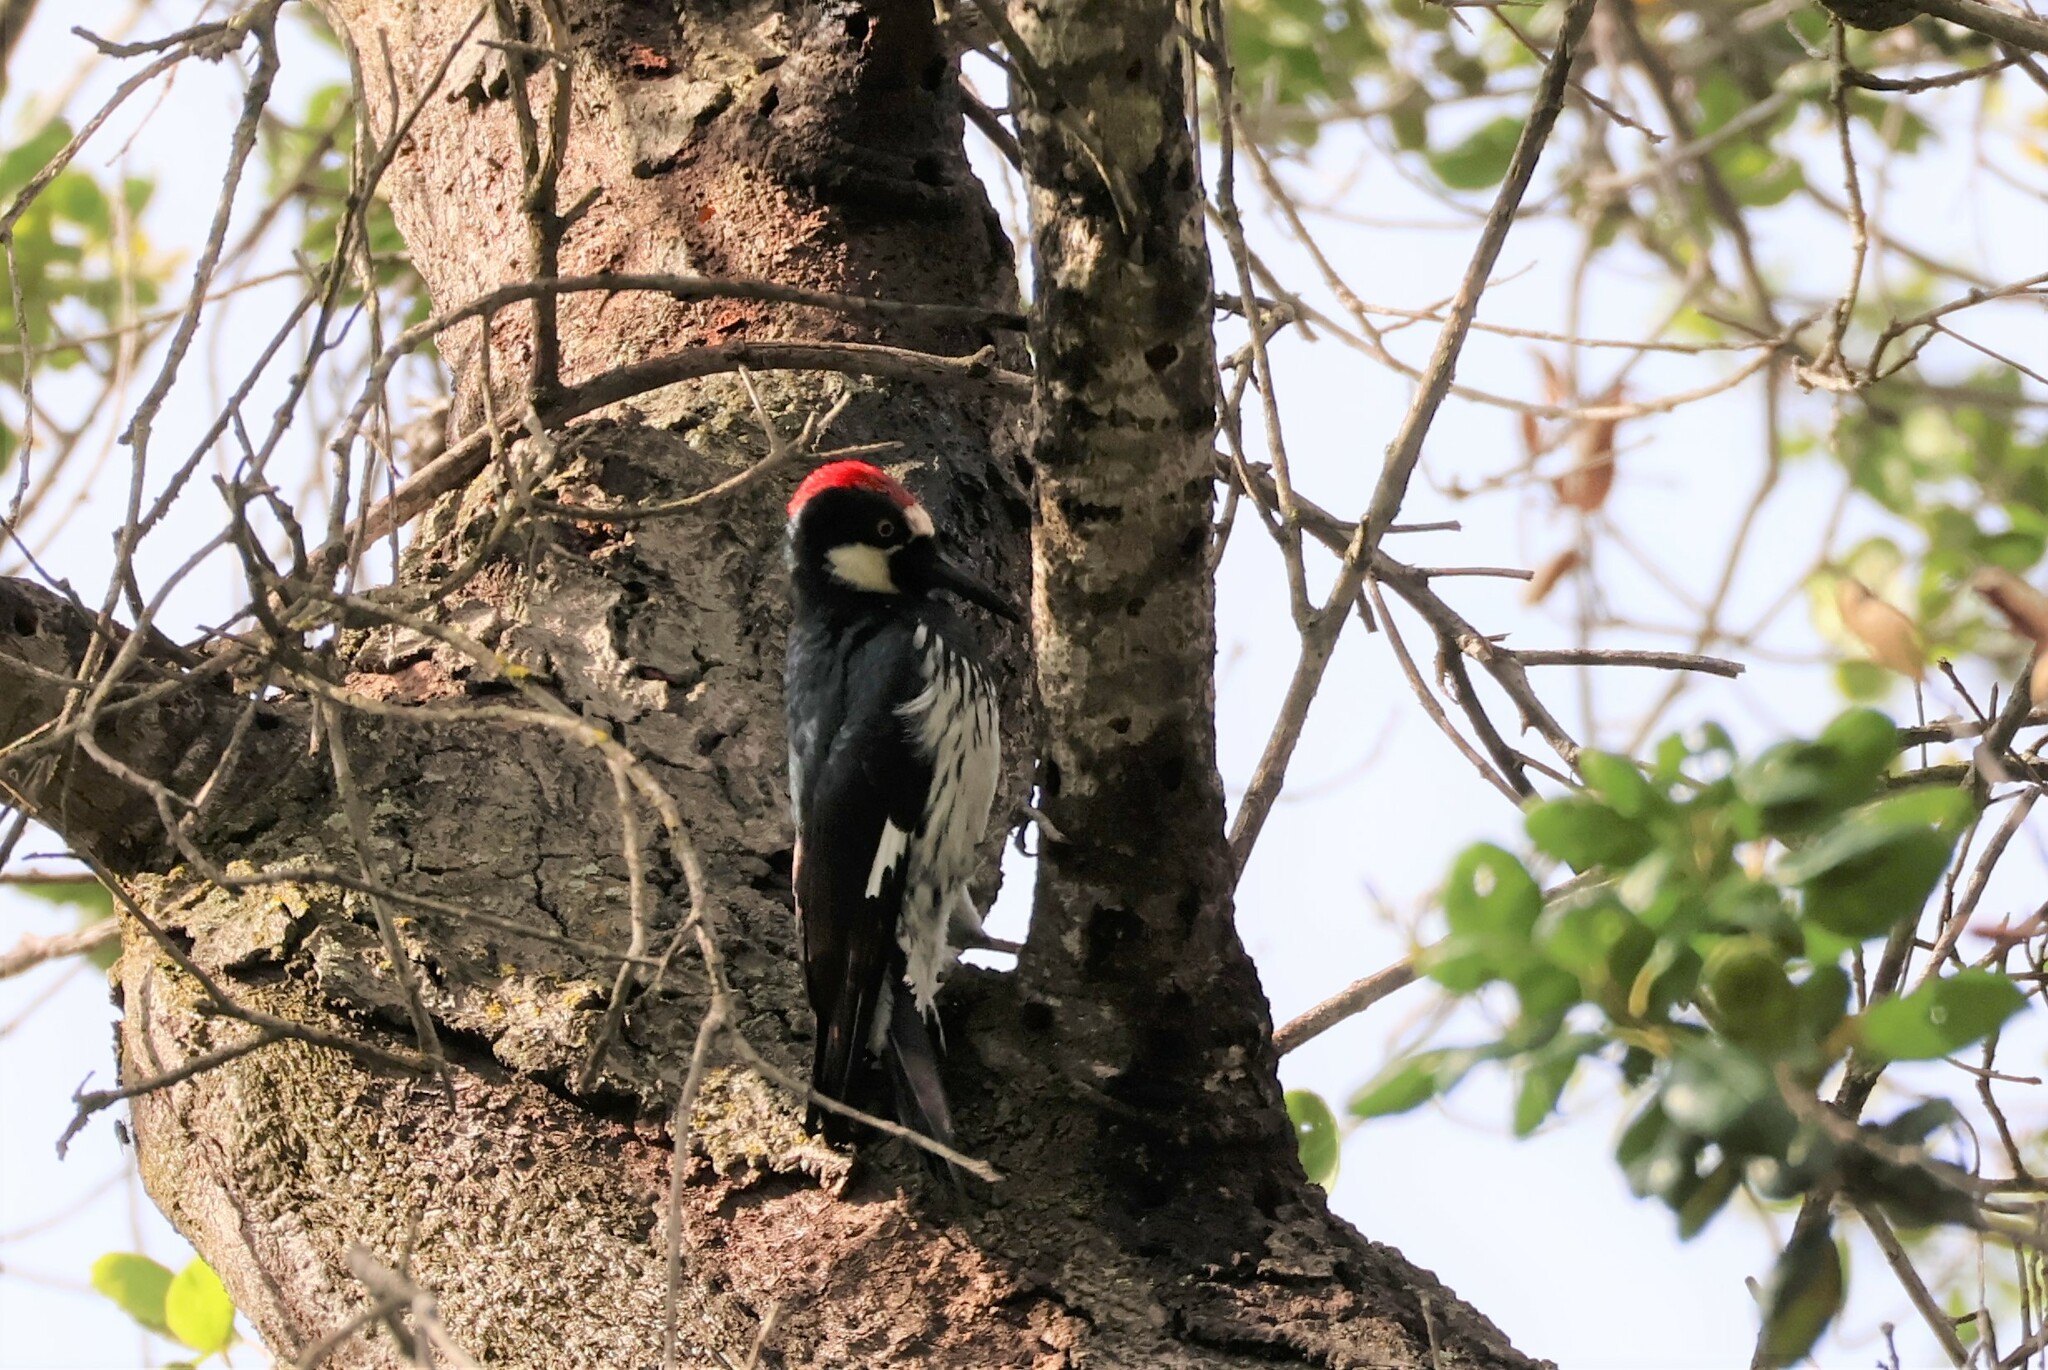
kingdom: Animalia
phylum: Chordata
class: Aves
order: Piciformes
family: Picidae
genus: Melanerpes
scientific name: Melanerpes formicivorus
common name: Acorn woodpecker
